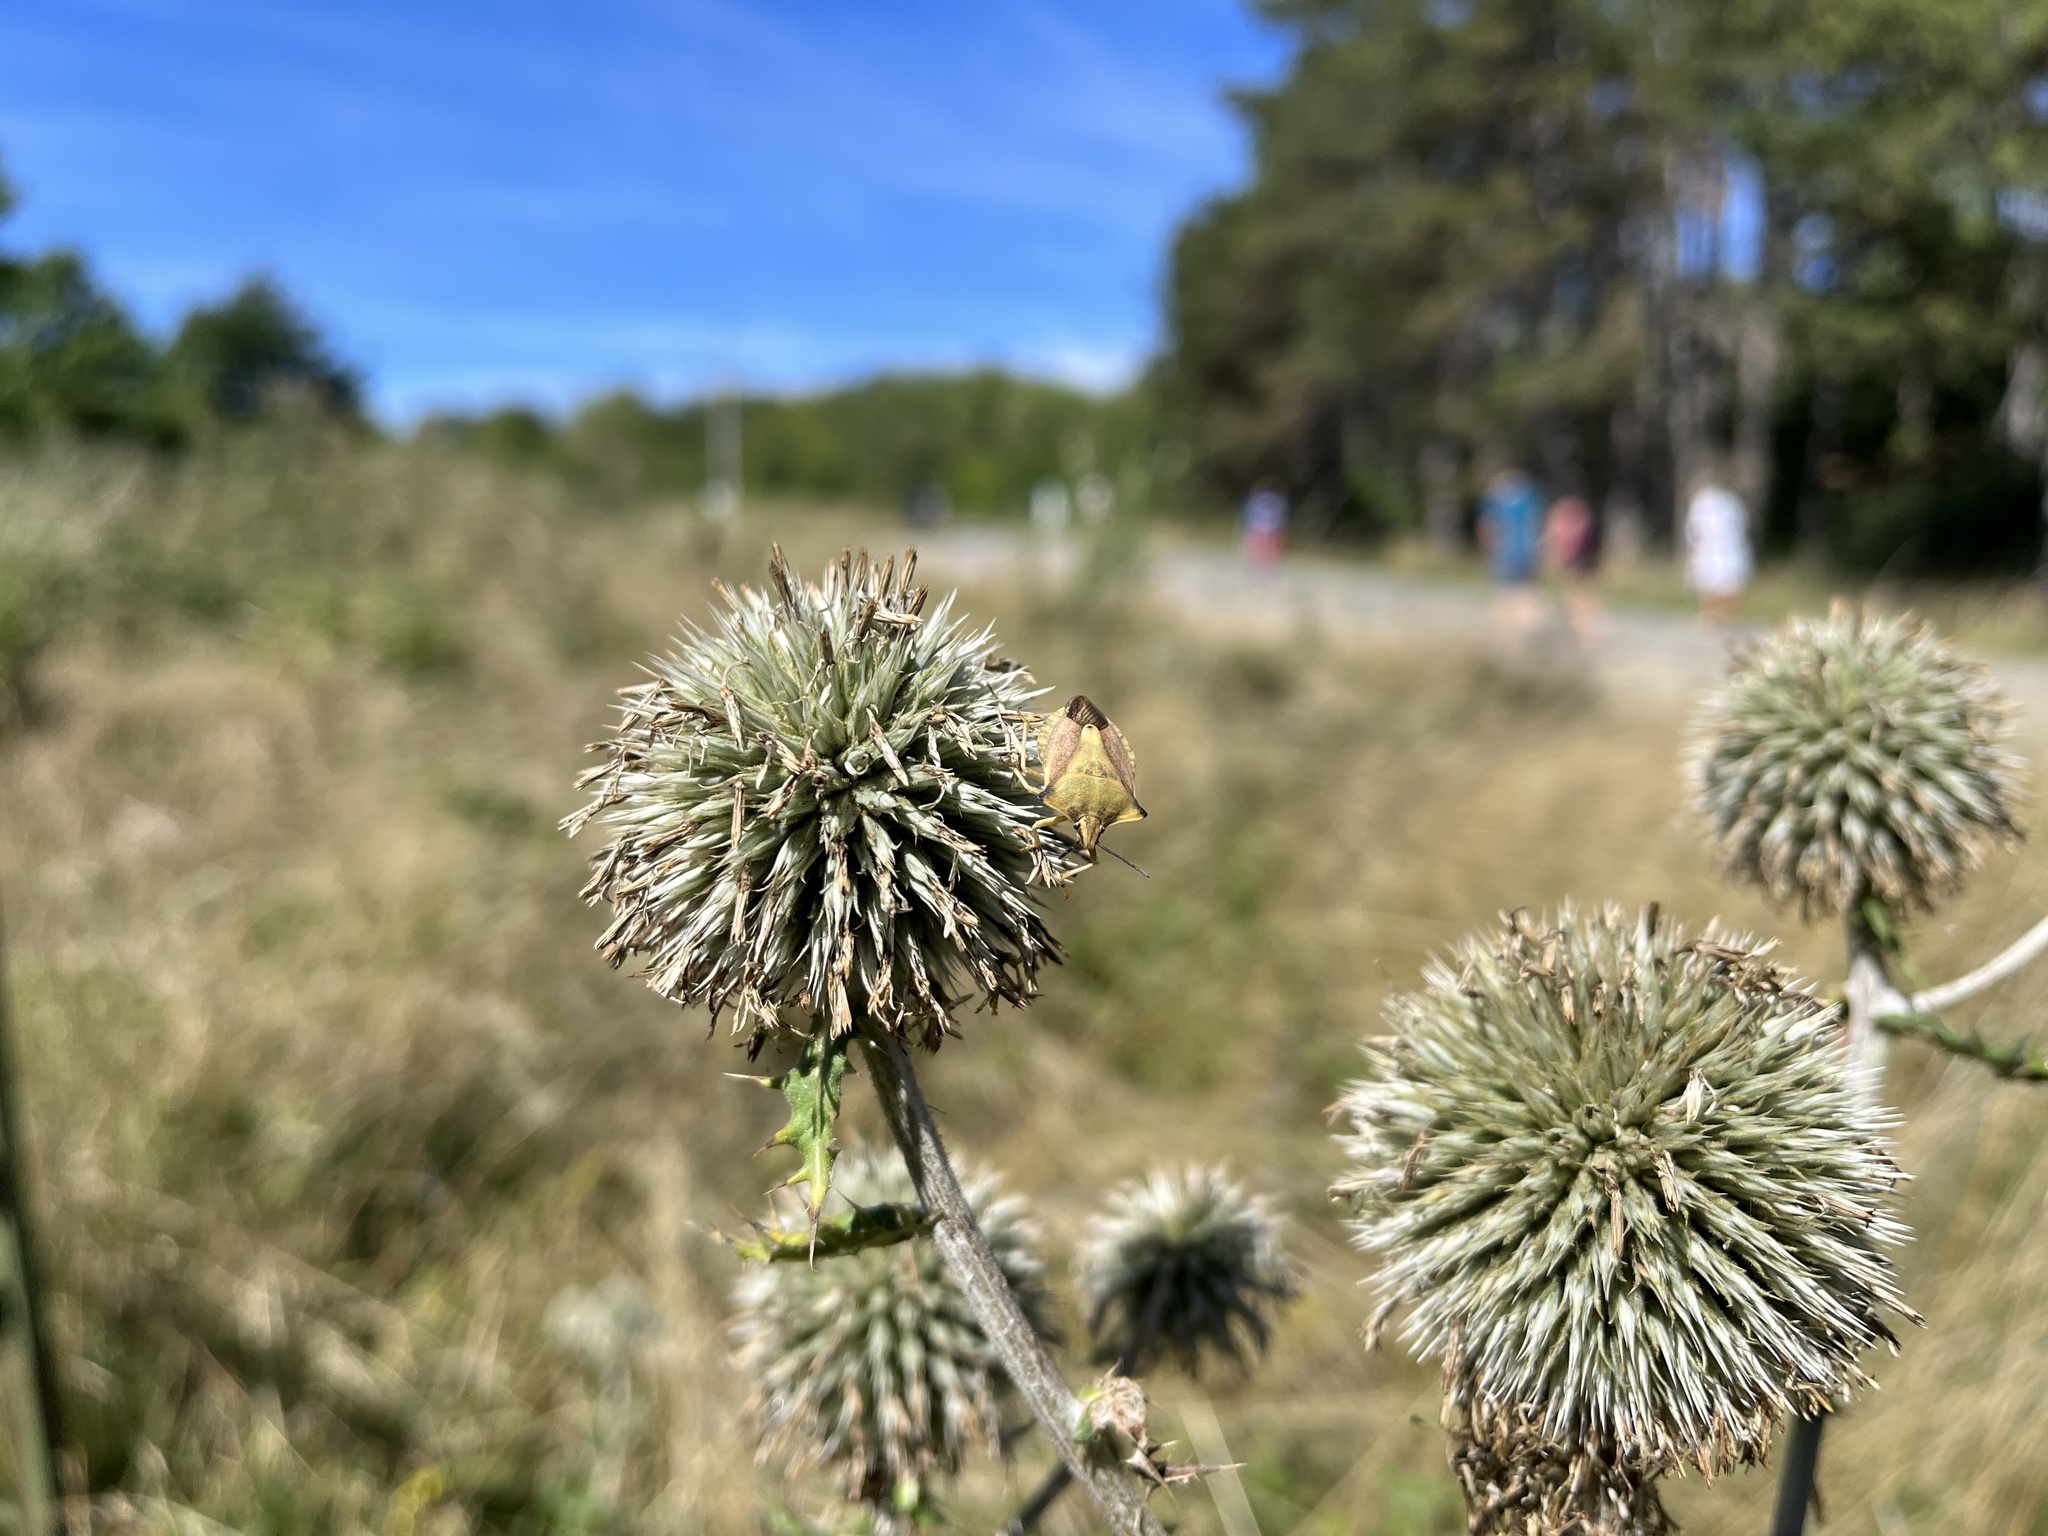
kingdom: Animalia
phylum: Arthropoda
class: Insecta
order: Hemiptera
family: Pentatomidae
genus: Carpocoris
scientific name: Carpocoris fuscispinus
